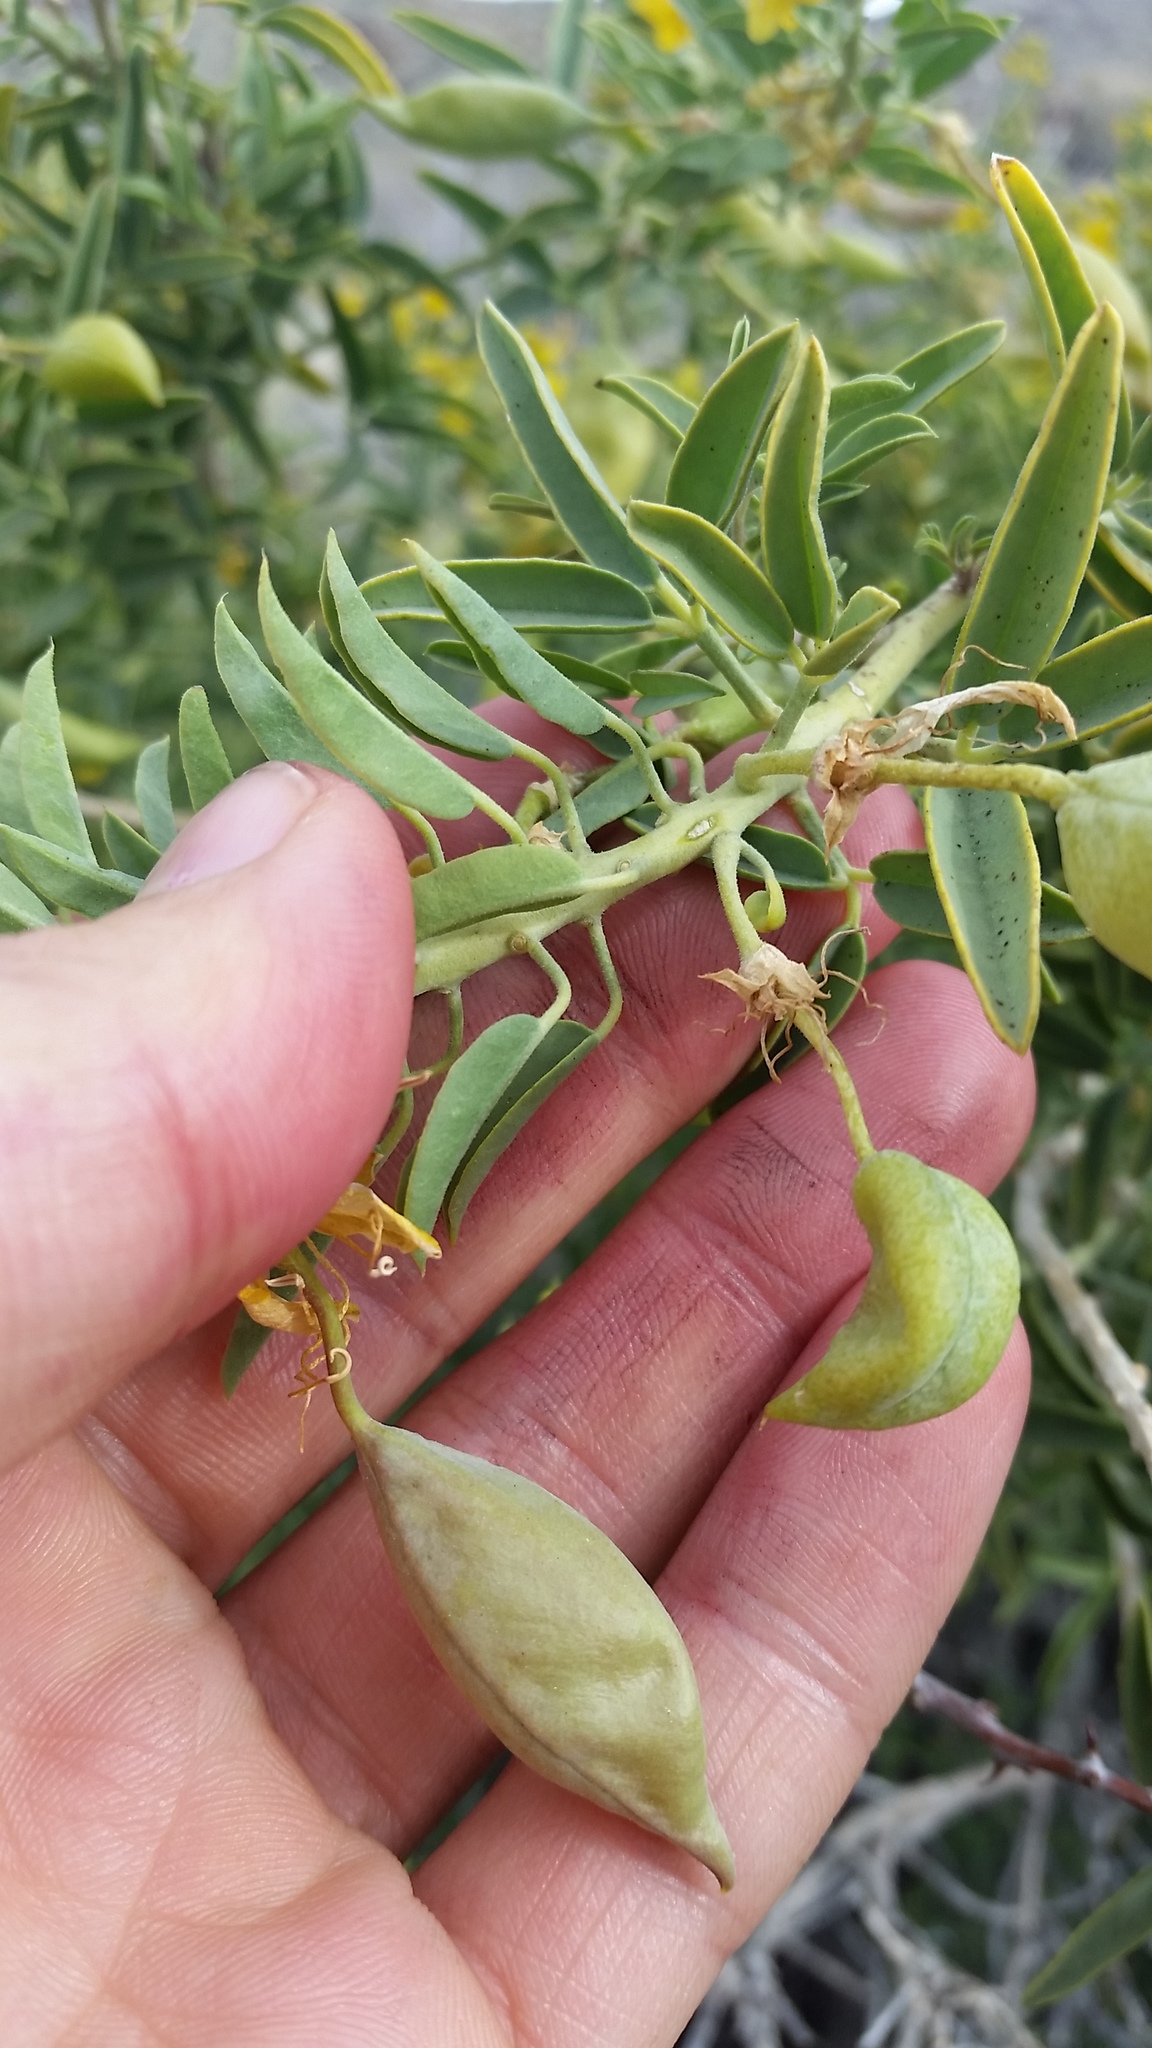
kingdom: Plantae
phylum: Tracheophyta
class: Magnoliopsida
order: Brassicales
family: Cleomaceae
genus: Cleomella
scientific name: Cleomella arborea
